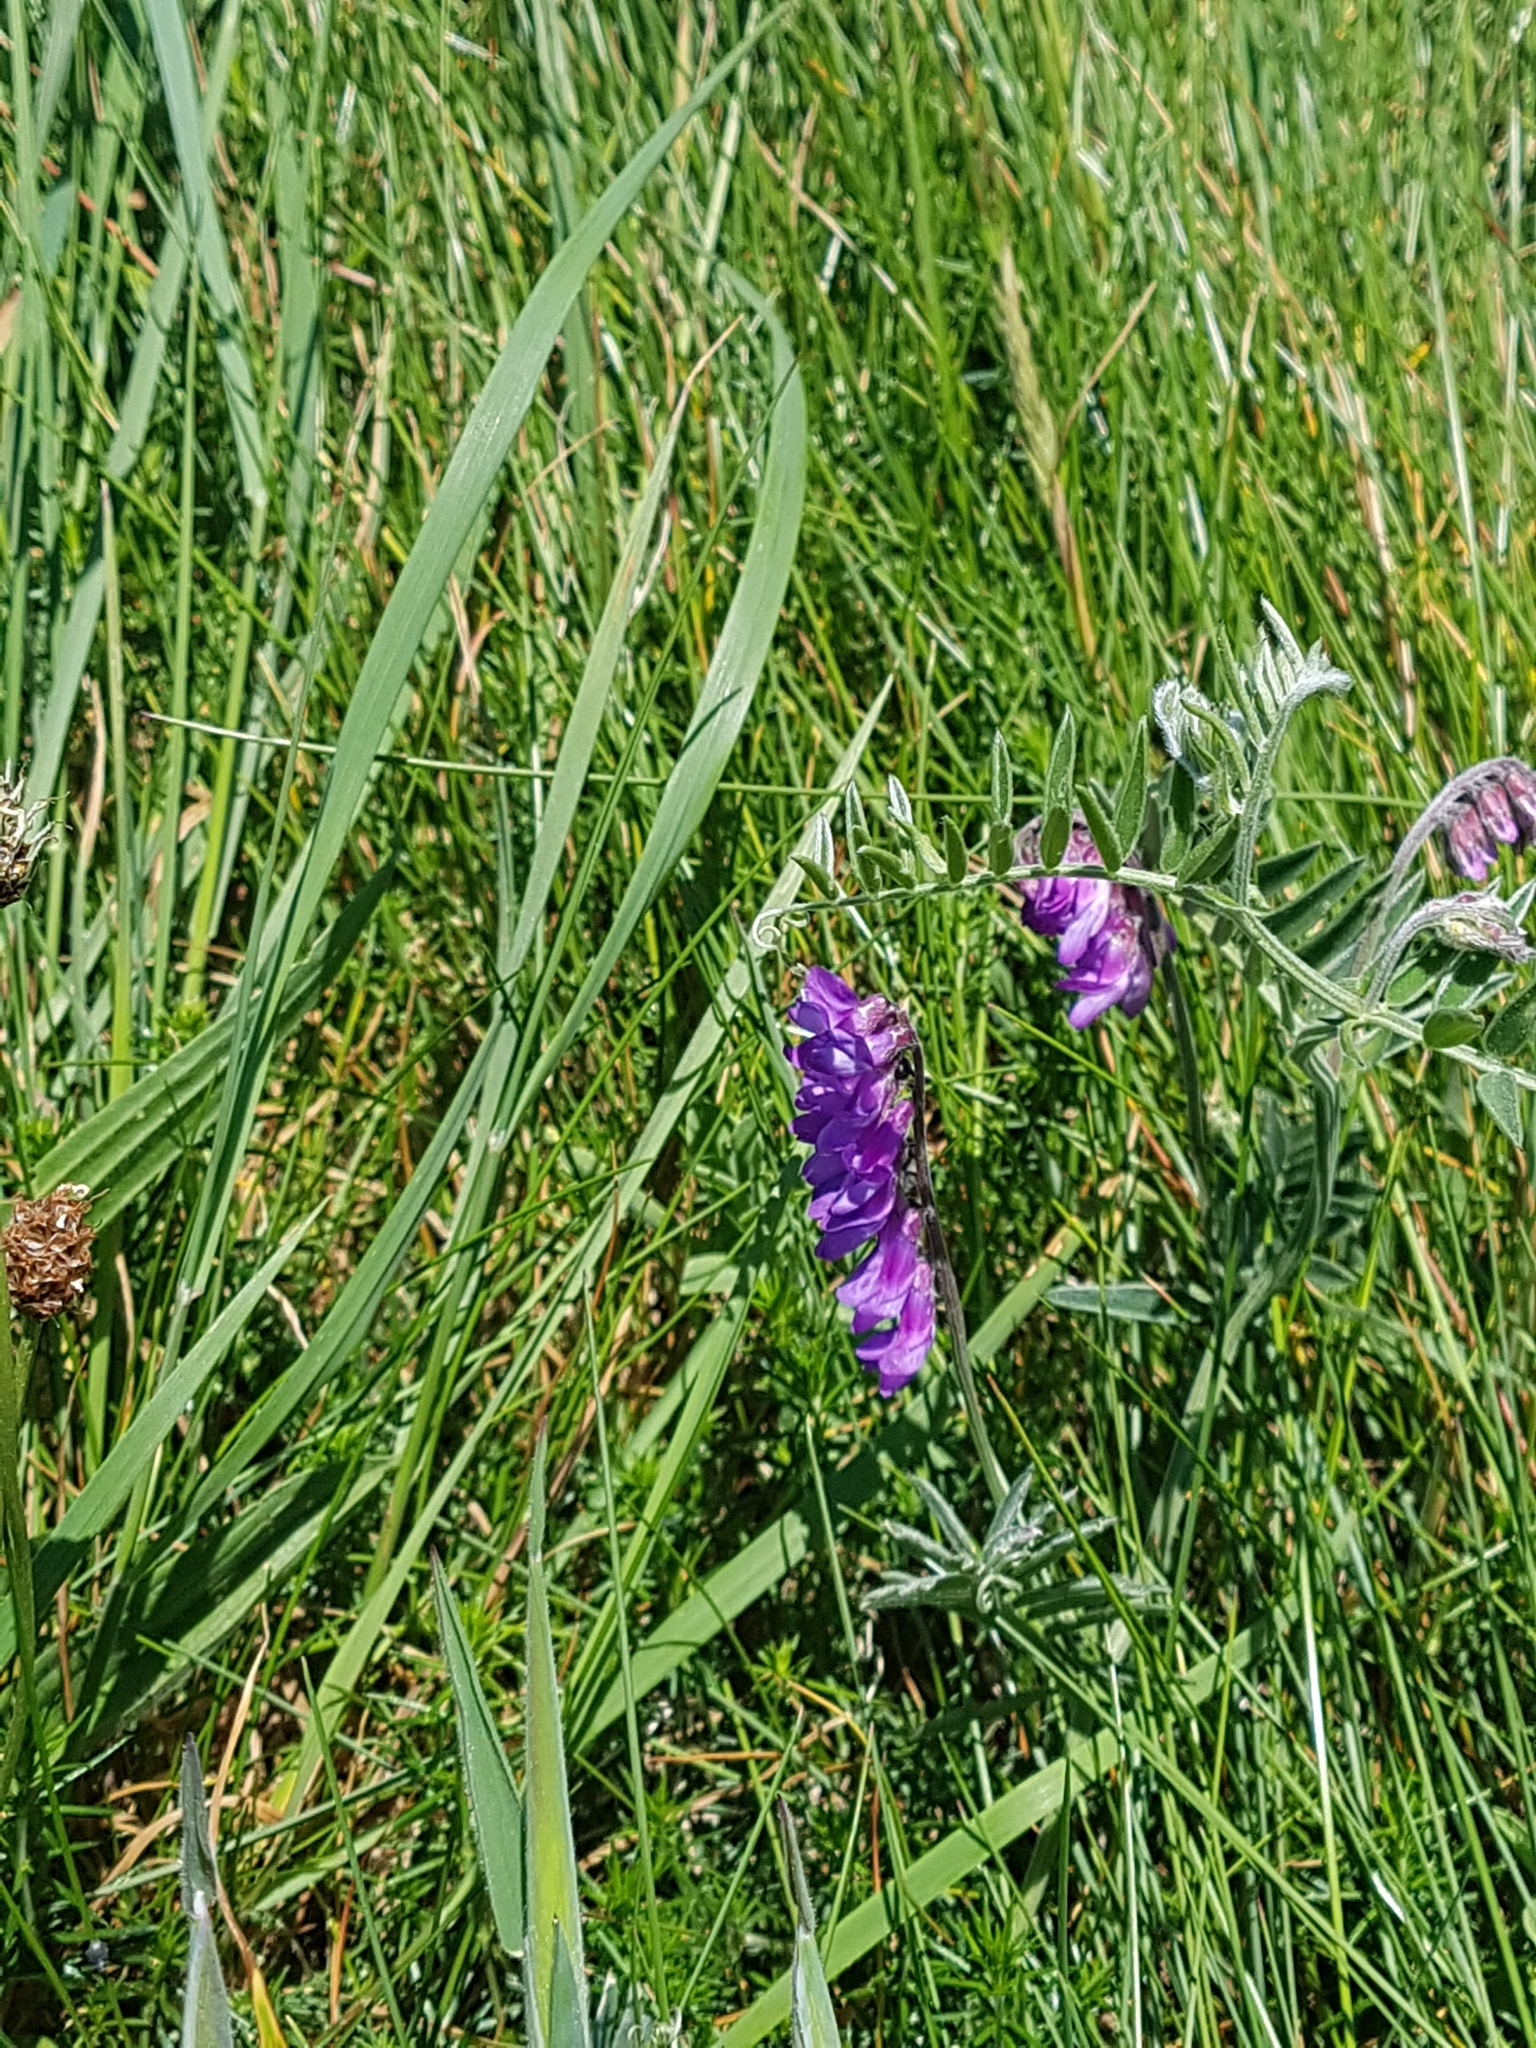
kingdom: Plantae
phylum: Tracheophyta
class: Magnoliopsida
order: Fabales
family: Fabaceae
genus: Vicia
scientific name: Vicia cracca
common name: Bird vetch
